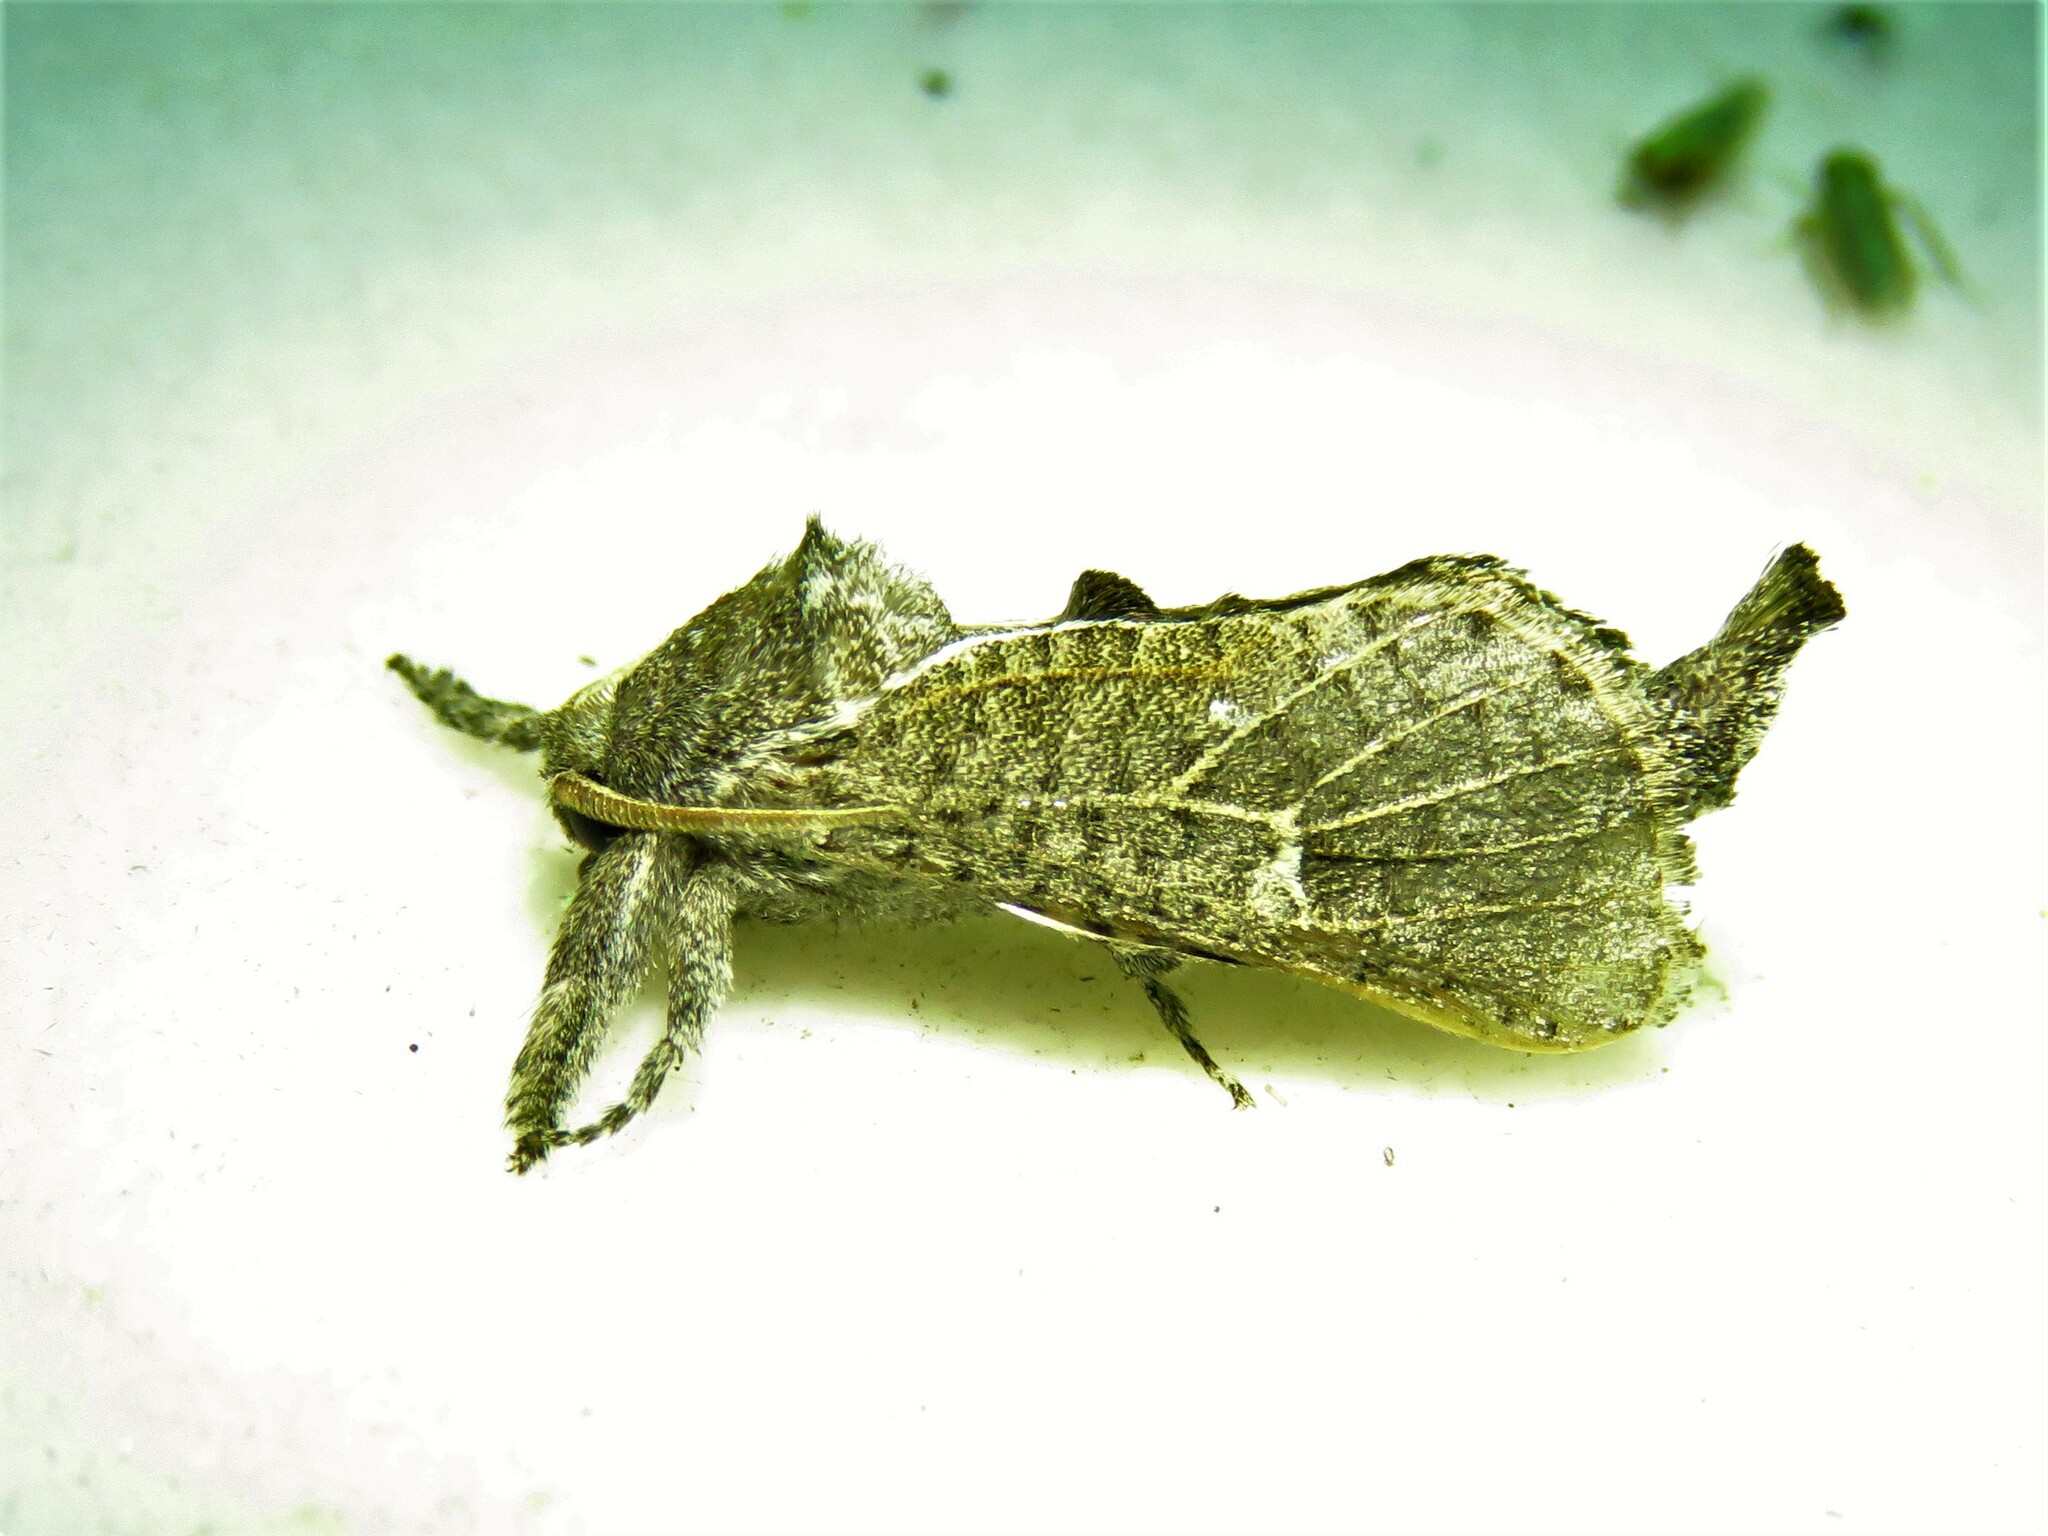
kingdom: Animalia
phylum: Arthropoda
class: Insecta
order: Lepidoptera
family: Cossidae
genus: Givira
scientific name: Givira anna
